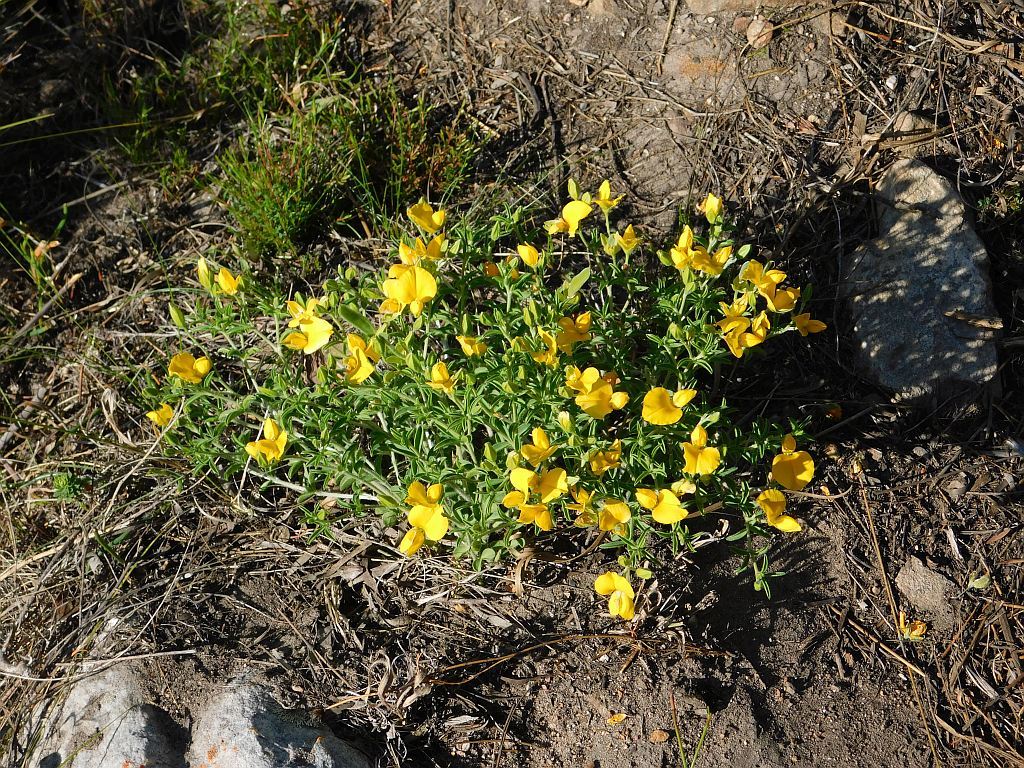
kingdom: Plantae
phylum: Tracheophyta
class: Magnoliopsida
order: Fabales
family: Fabaceae
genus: Argyrolobium
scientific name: Argyrolobium pachyphyllum
